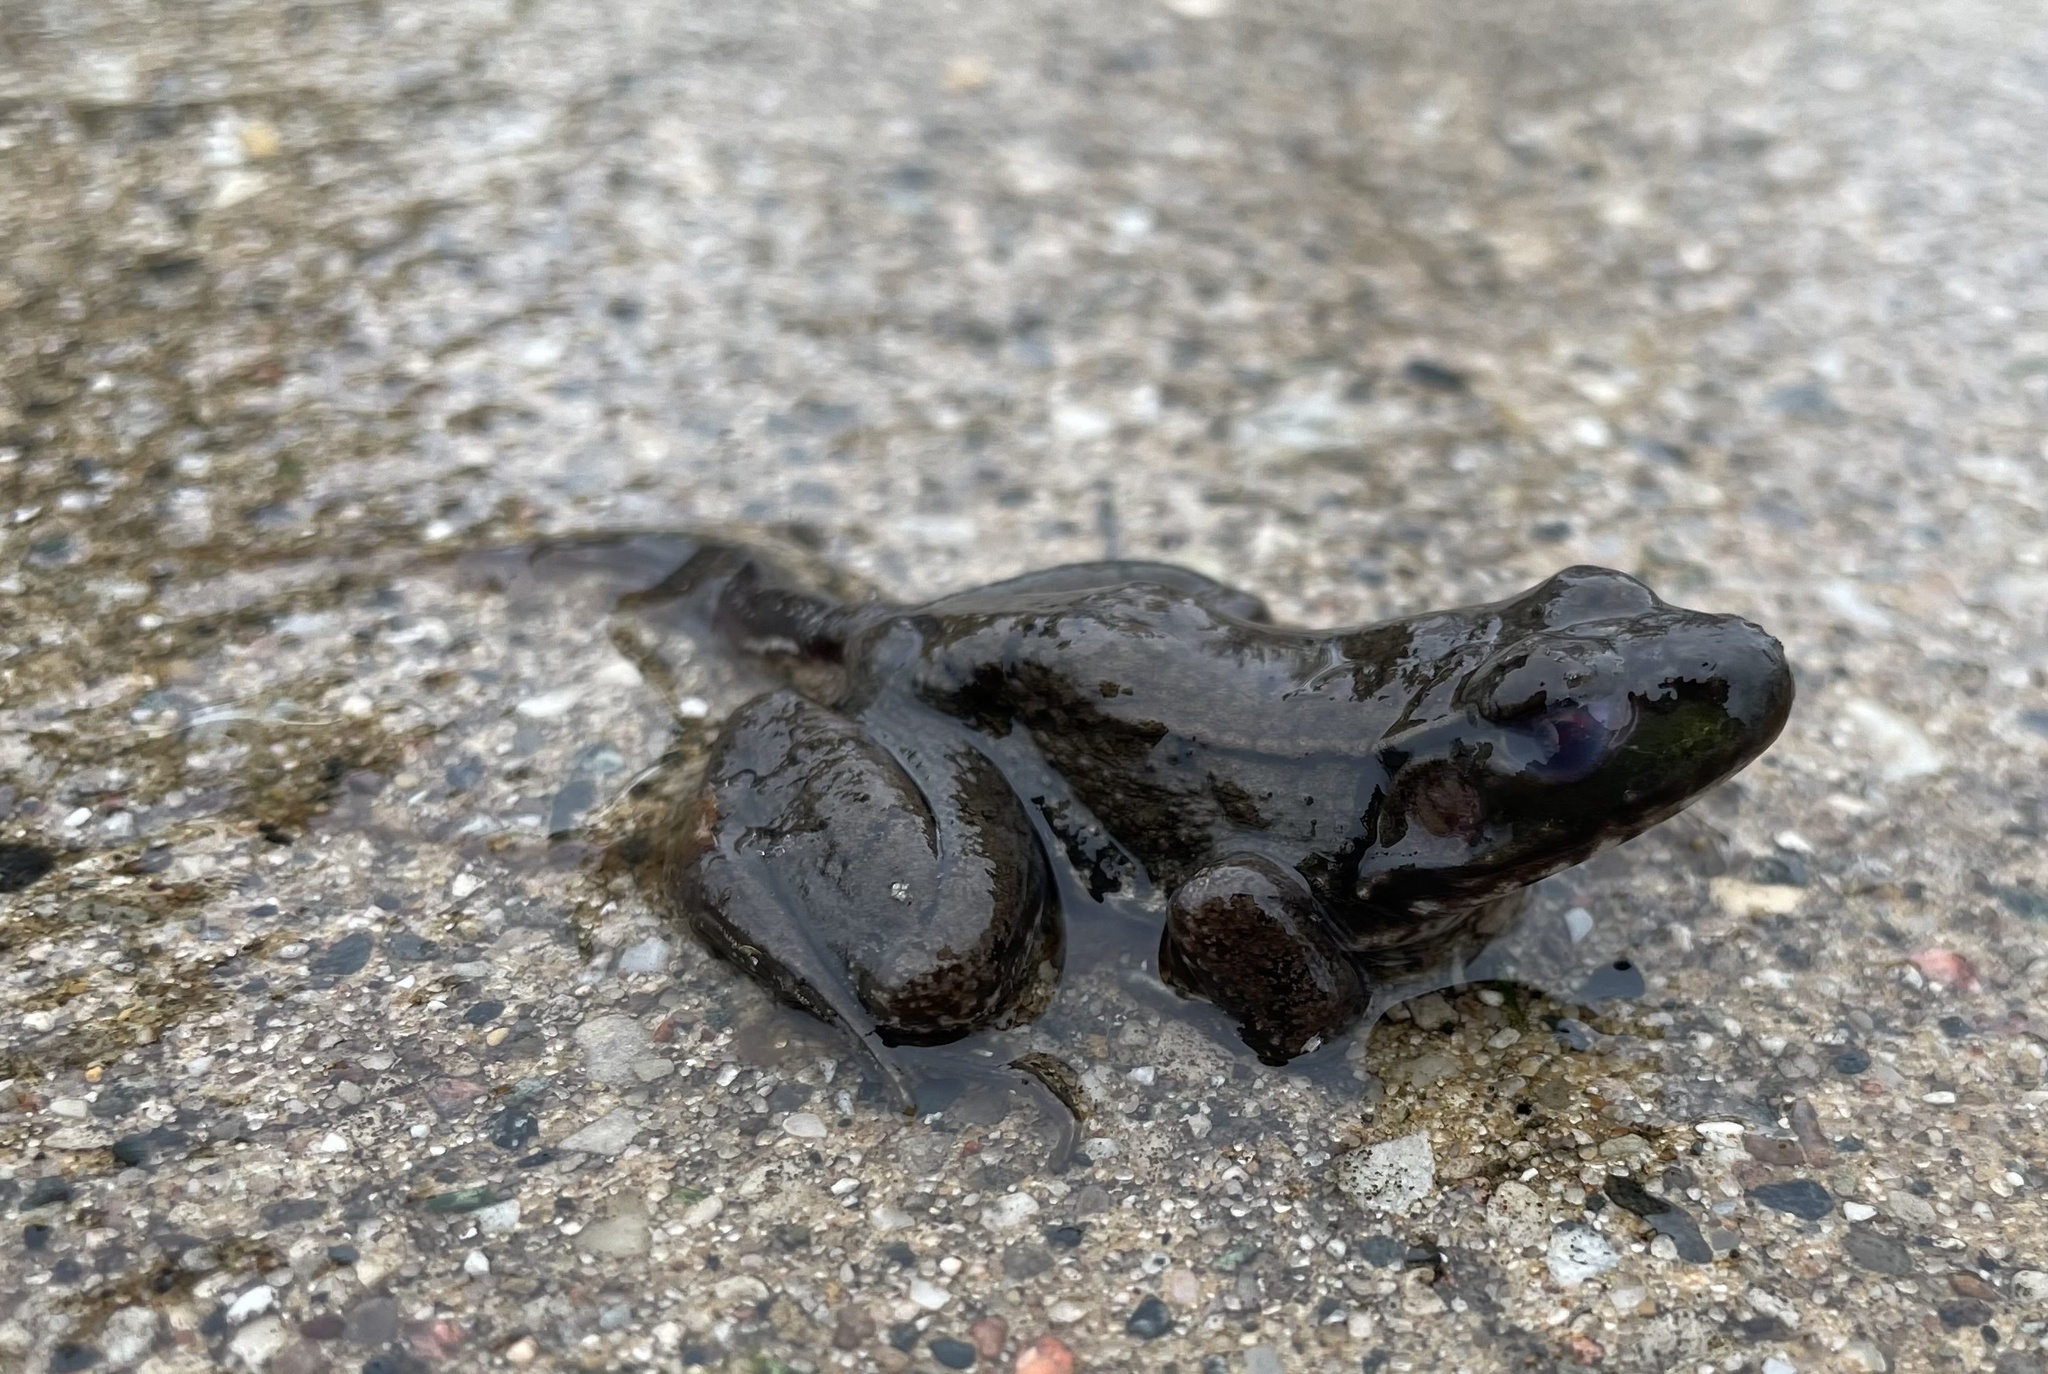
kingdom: Animalia
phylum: Chordata
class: Amphibia
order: Anura
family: Ranidae
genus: Lithobates
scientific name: Lithobates clamitans
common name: Green frog
